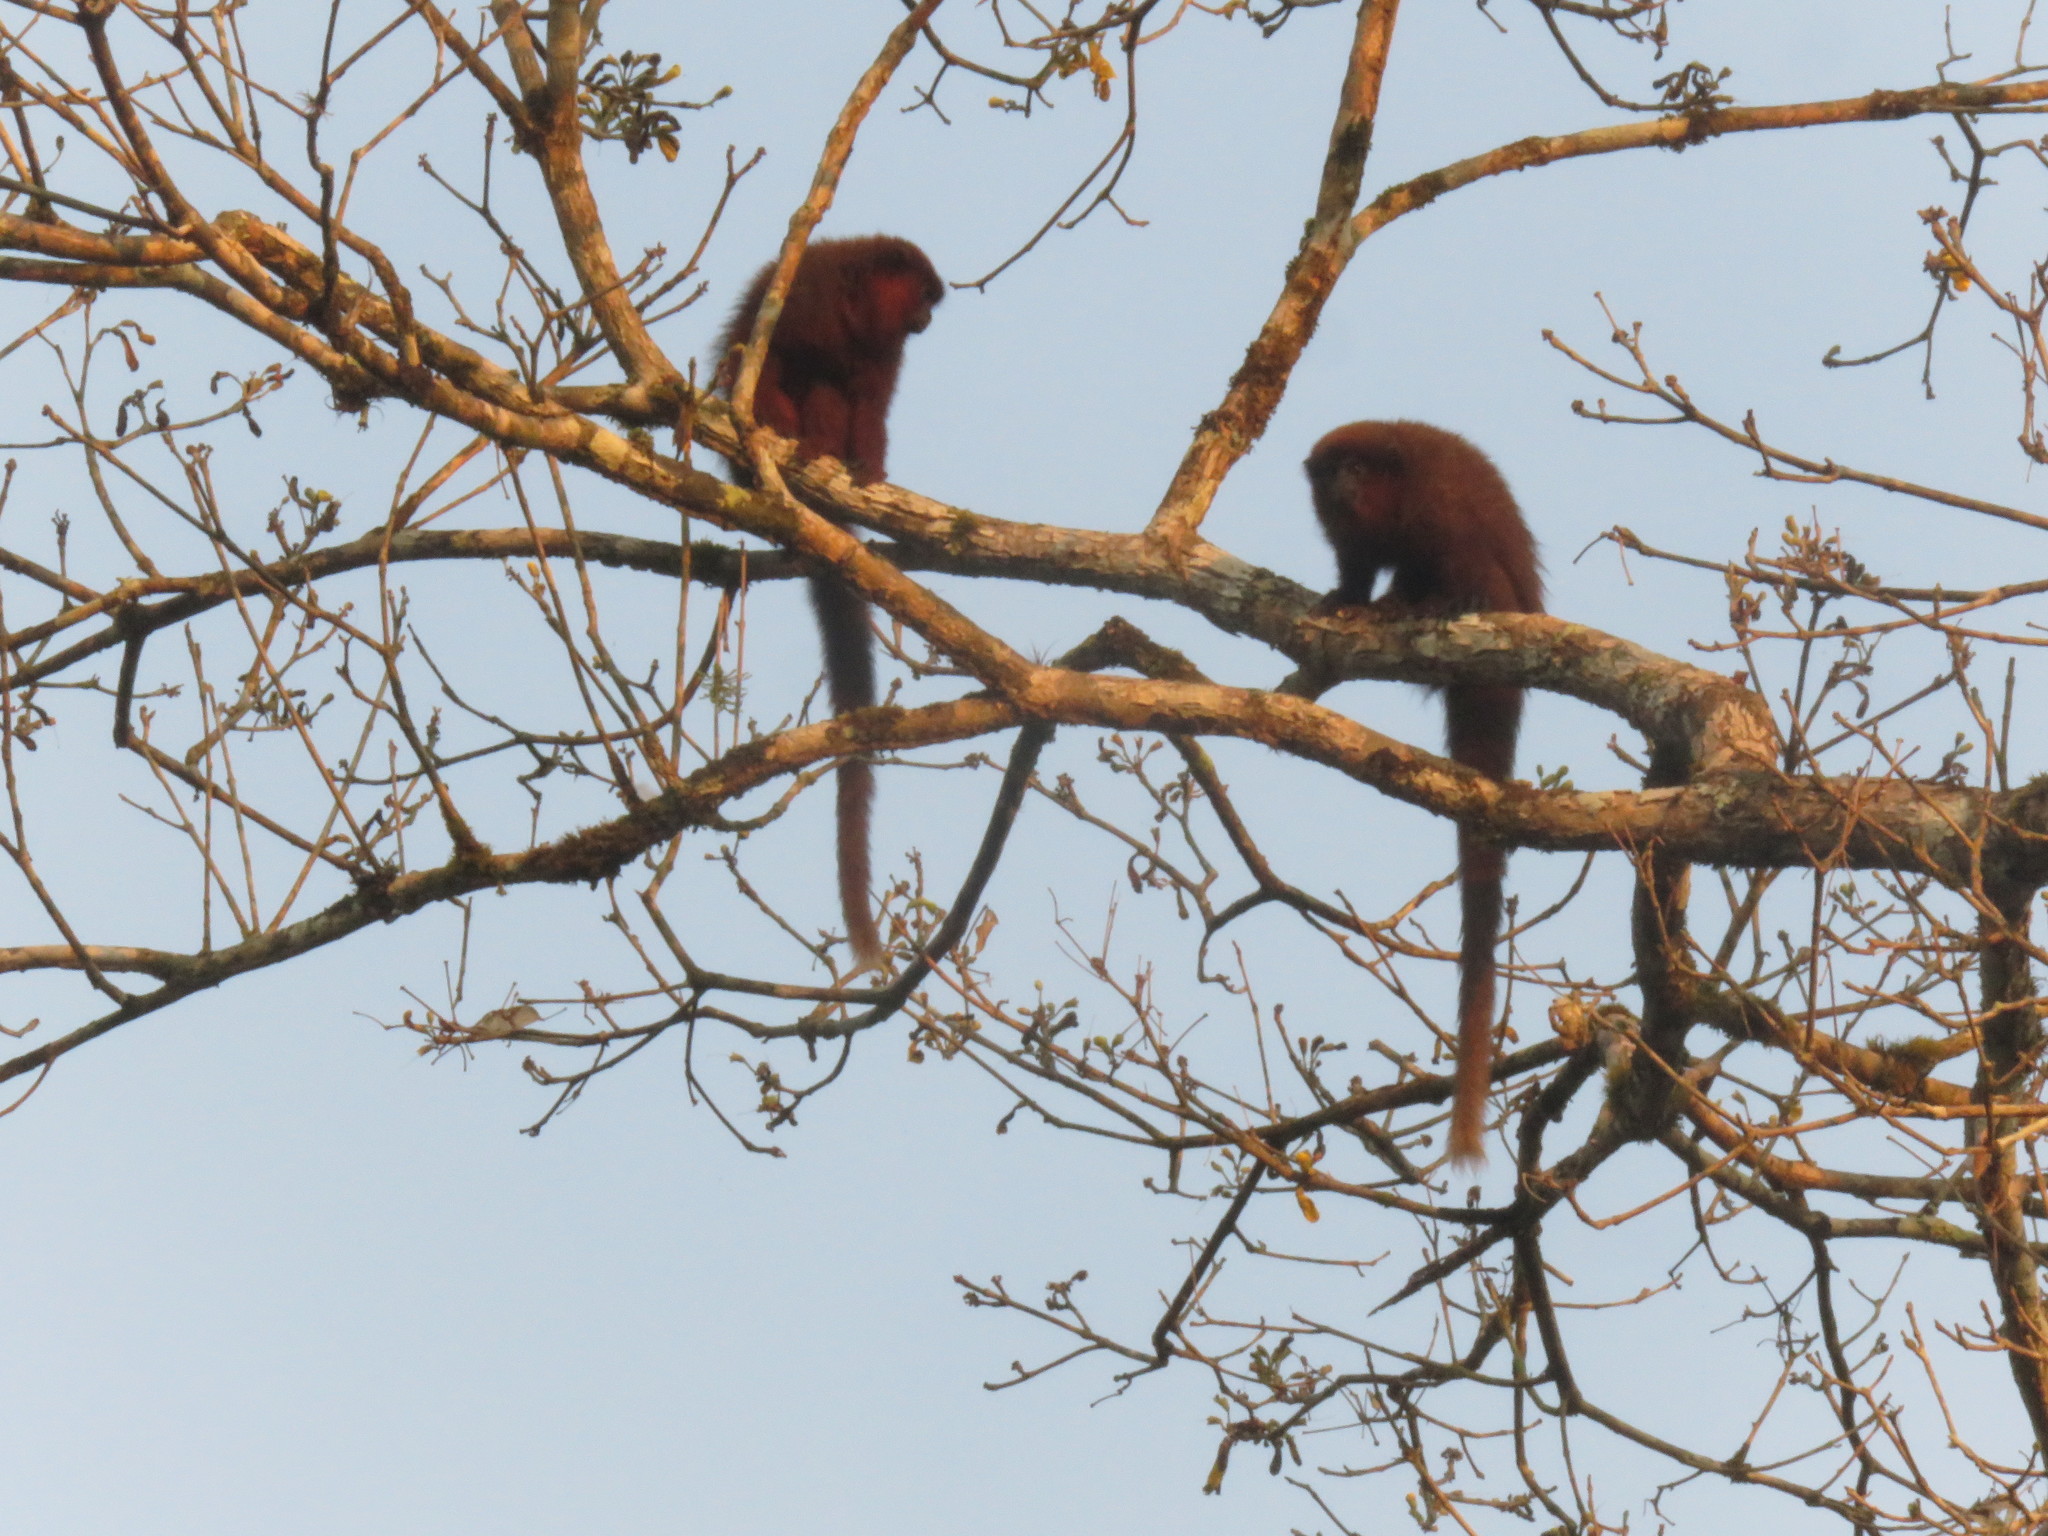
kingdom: Animalia
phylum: Chordata
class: Mammalia
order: Primates
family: Pitheciidae
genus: Plecturocebus
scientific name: Plecturocebus toppini
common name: Toppin's titi
